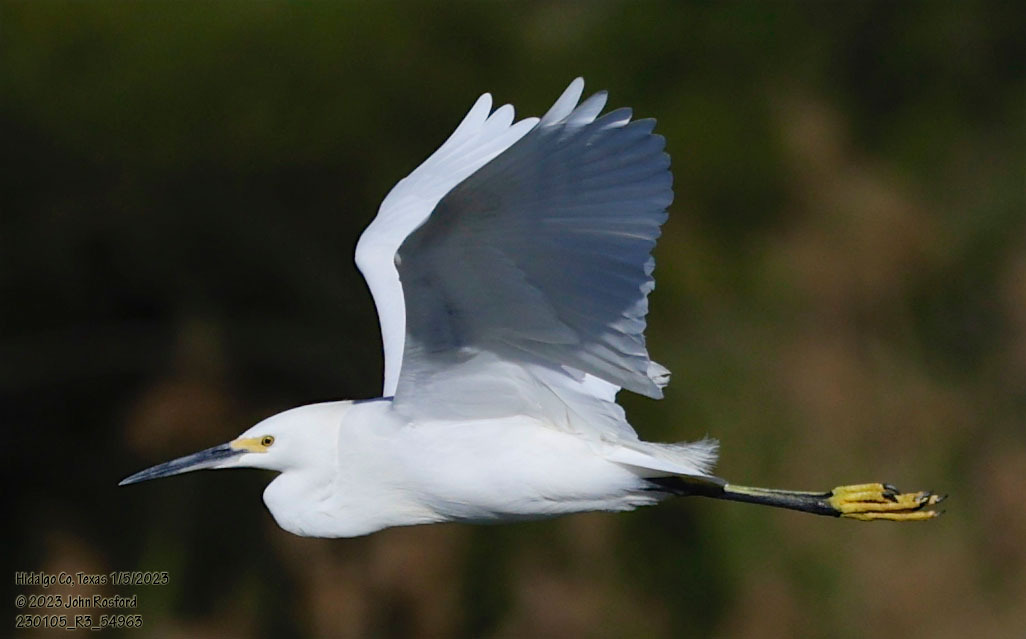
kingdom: Animalia
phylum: Chordata
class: Aves
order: Pelecaniformes
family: Ardeidae
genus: Egretta
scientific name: Egretta thula
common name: Snowy egret
